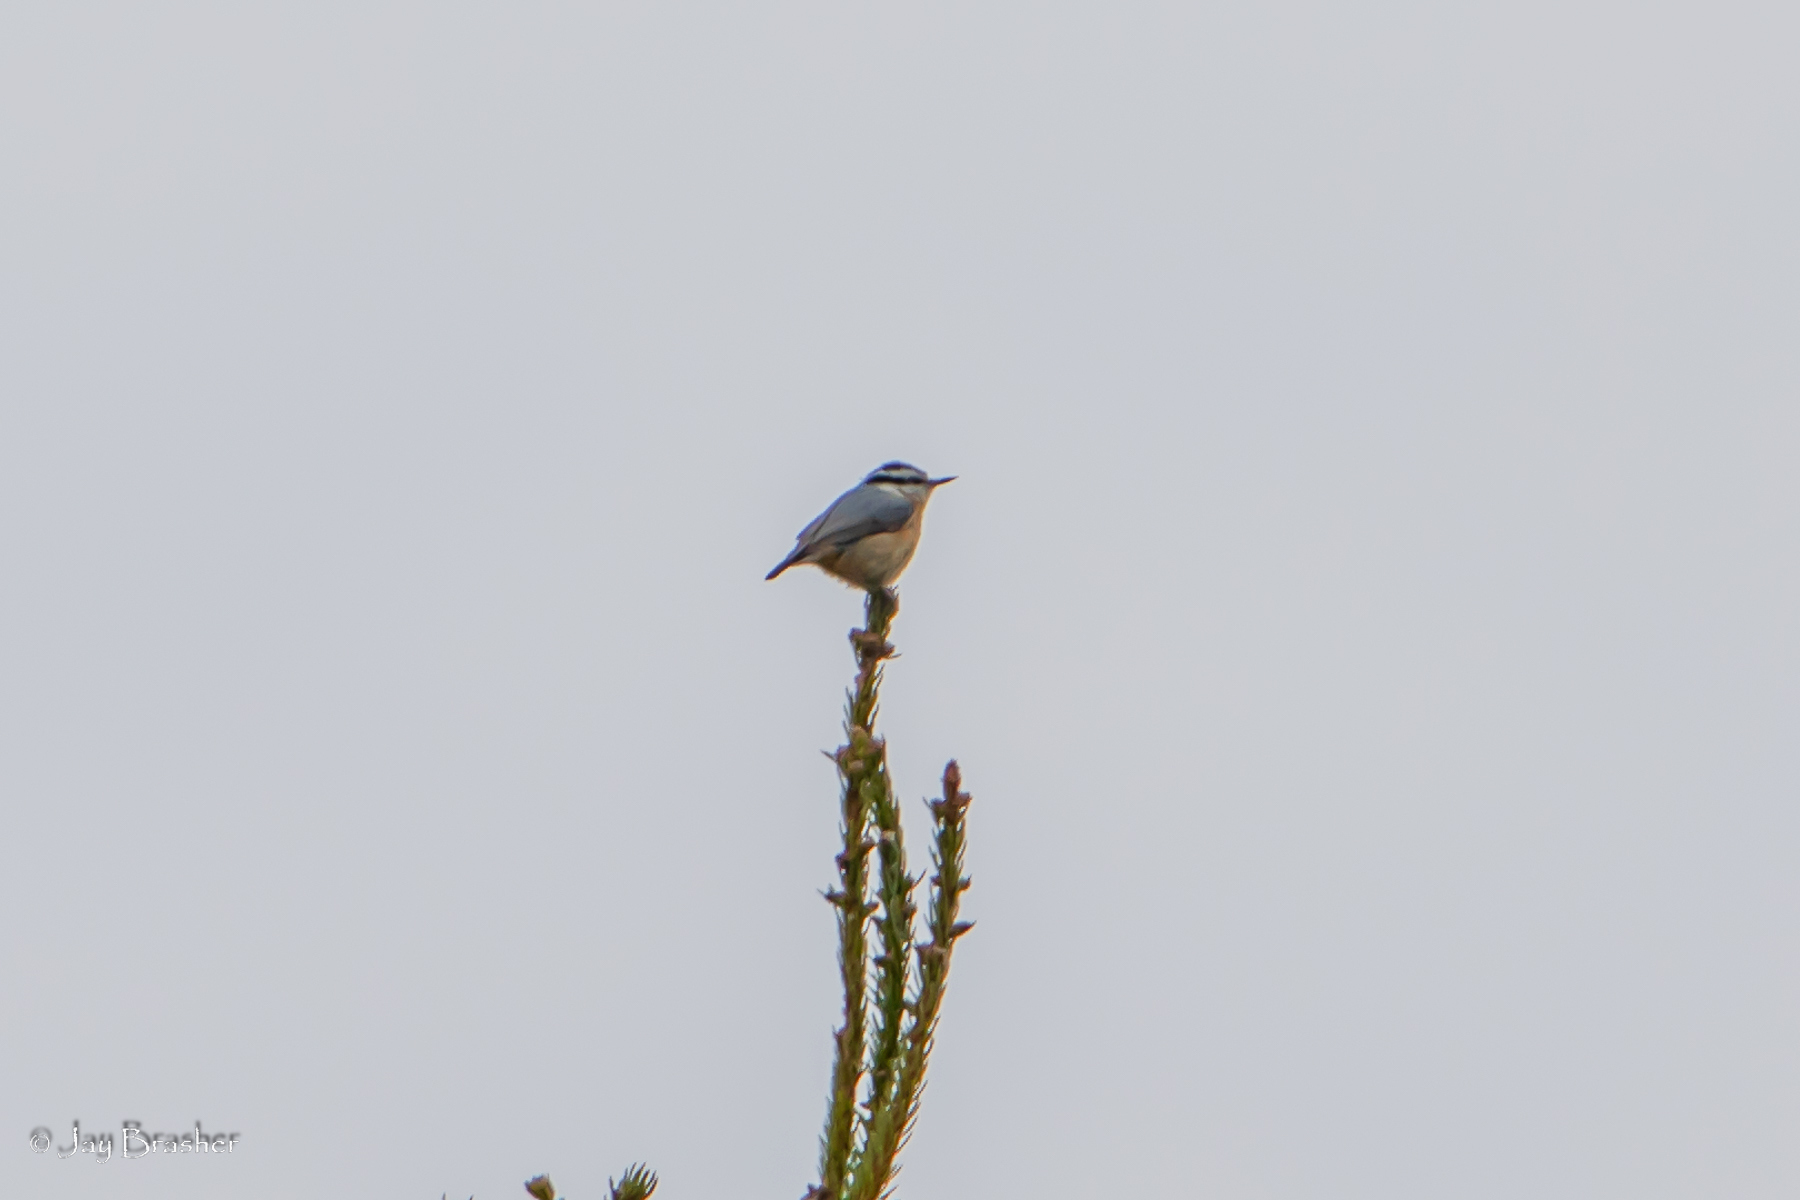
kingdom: Animalia
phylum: Chordata
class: Aves
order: Passeriformes
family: Sittidae
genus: Sitta
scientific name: Sitta canadensis
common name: Red-breasted nuthatch
